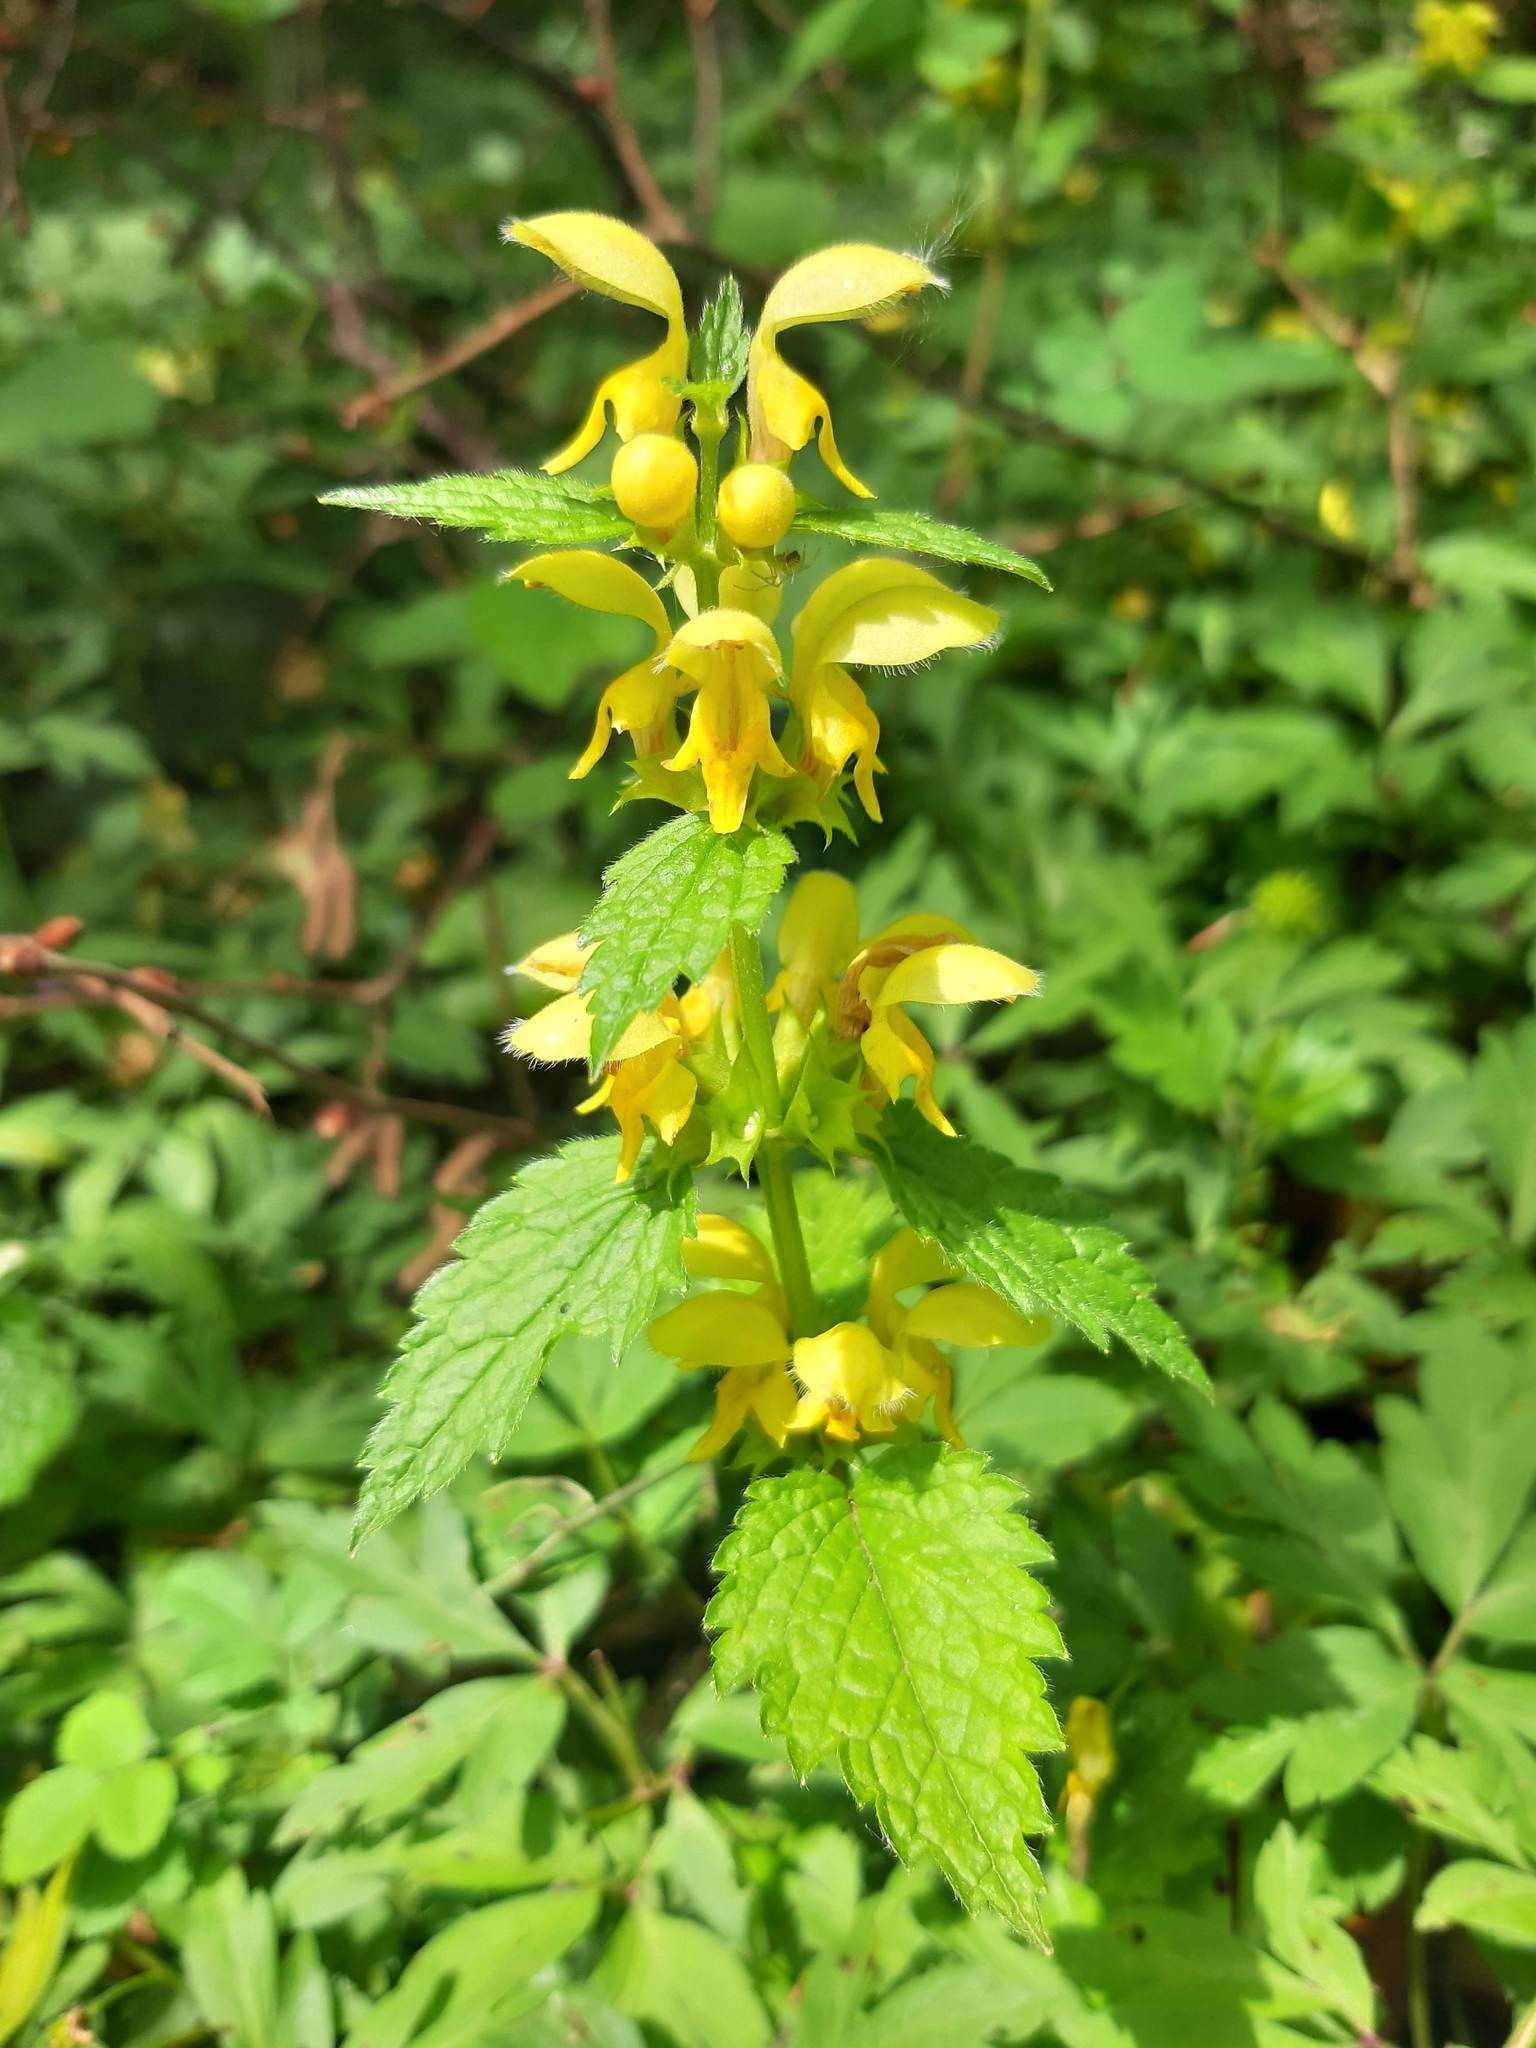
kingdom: Plantae
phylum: Tracheophyta
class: Magnoliopsida
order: Lamiales
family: Lamiaceae
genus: Lamium
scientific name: Lamium galeobdolon
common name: Yellow archangel
